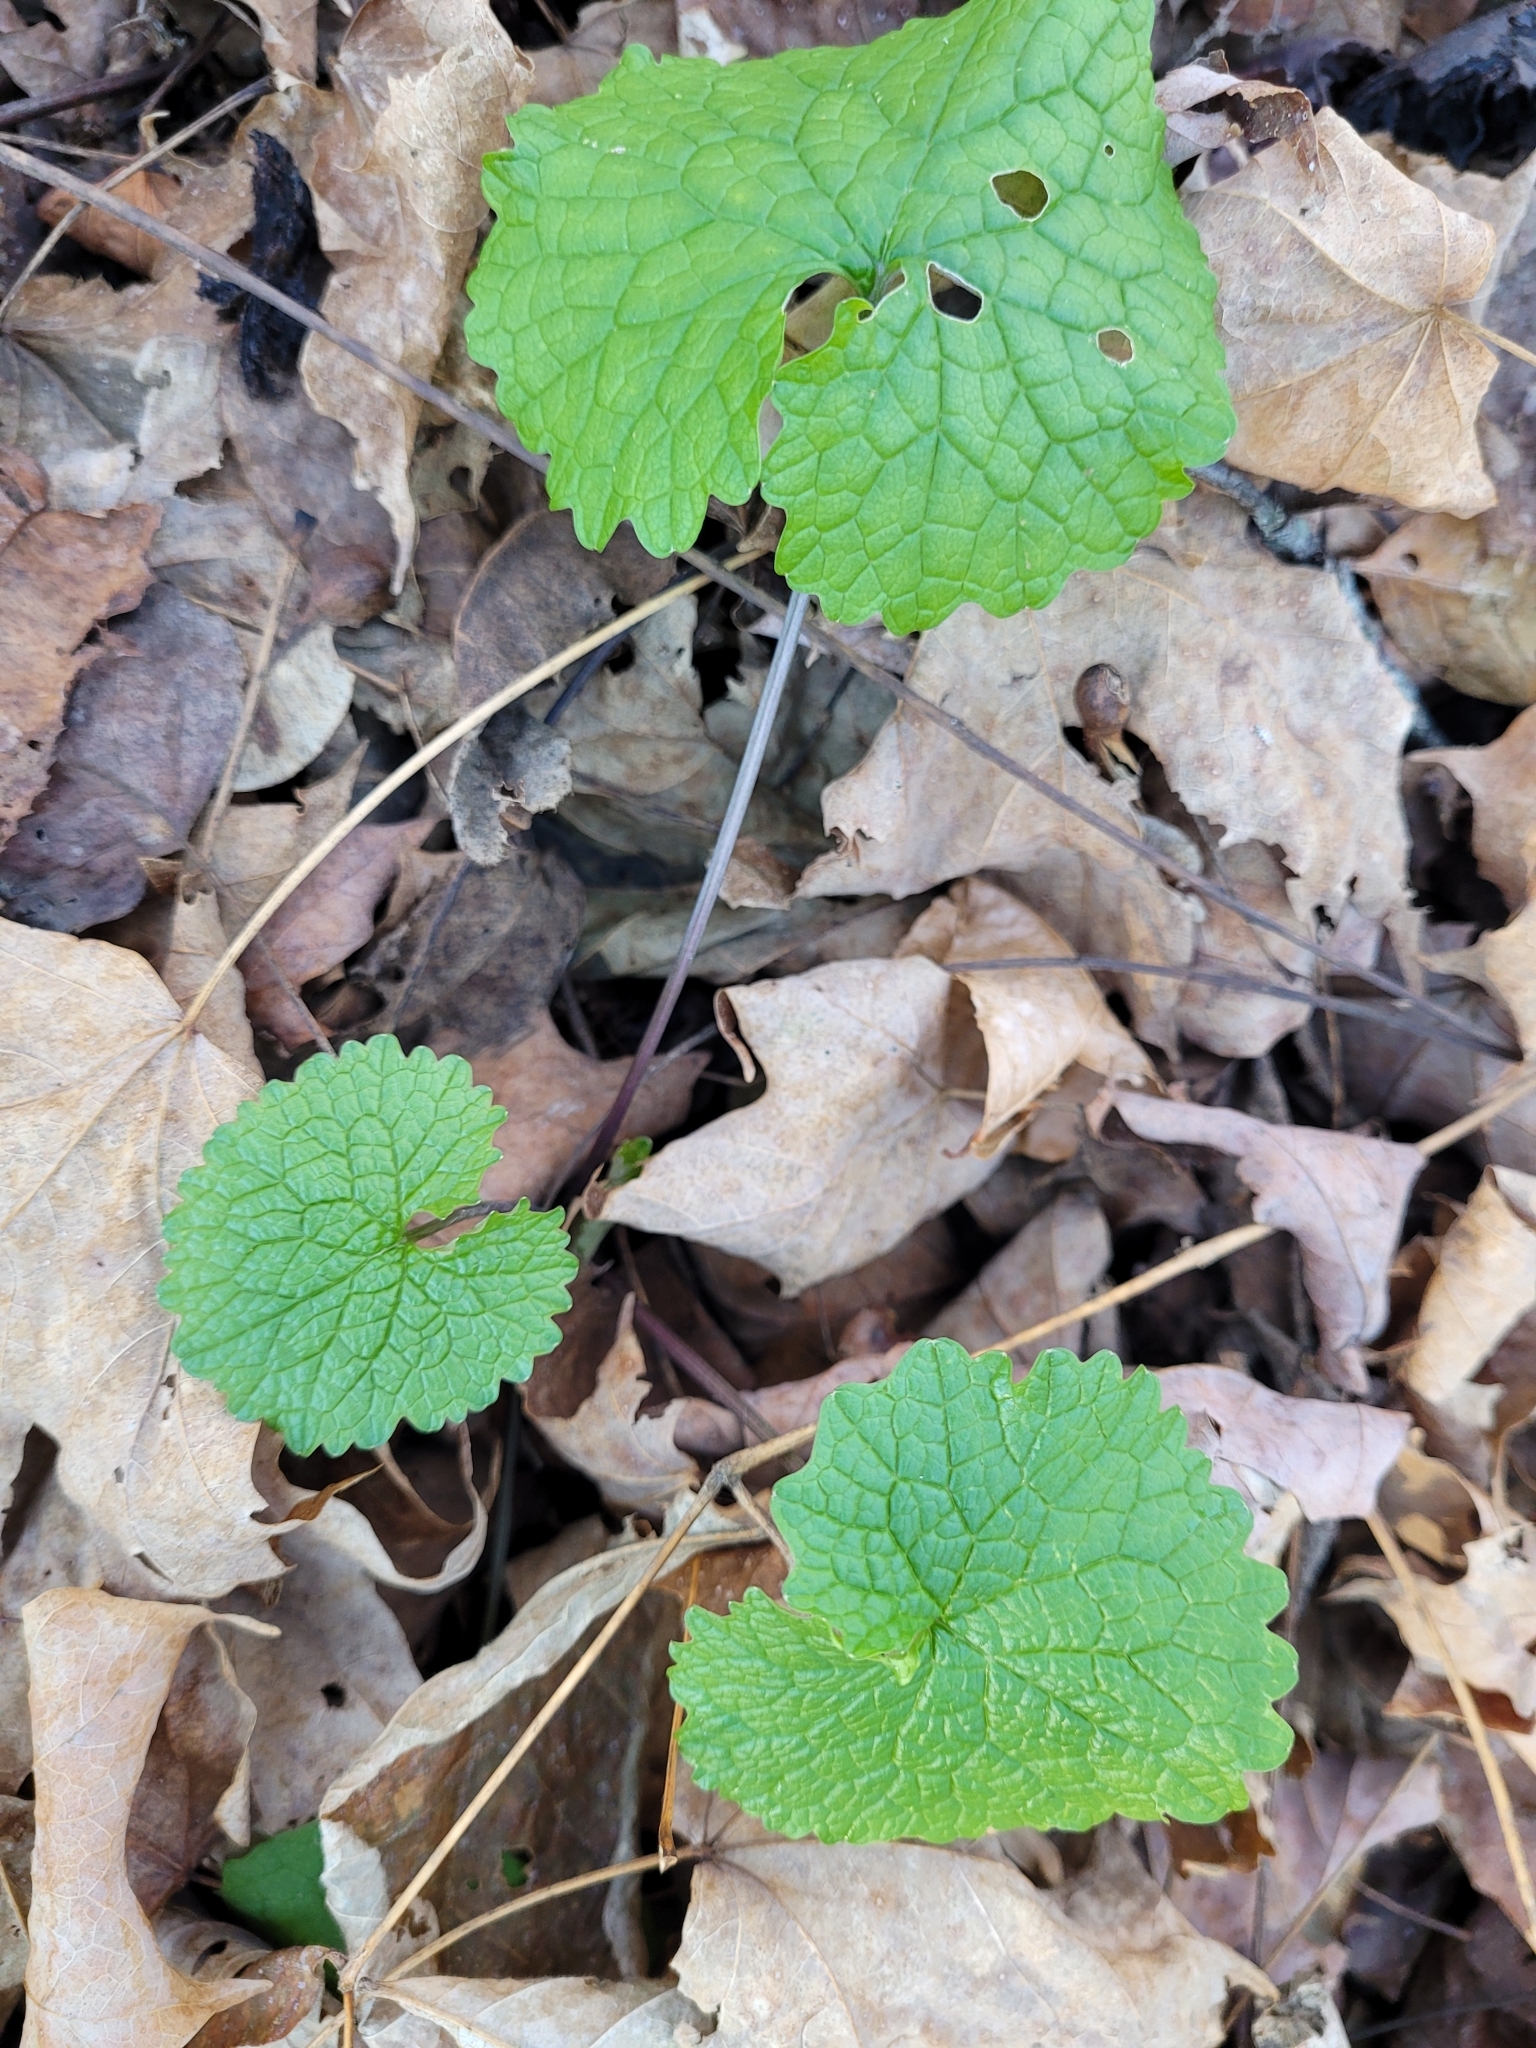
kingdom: Plantae
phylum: Tracheophyta
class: Magnoliopsida
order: Brassicales
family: Brassicaceae
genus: Alliaria
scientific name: Alliaria petiolata
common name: Garlic mustard
